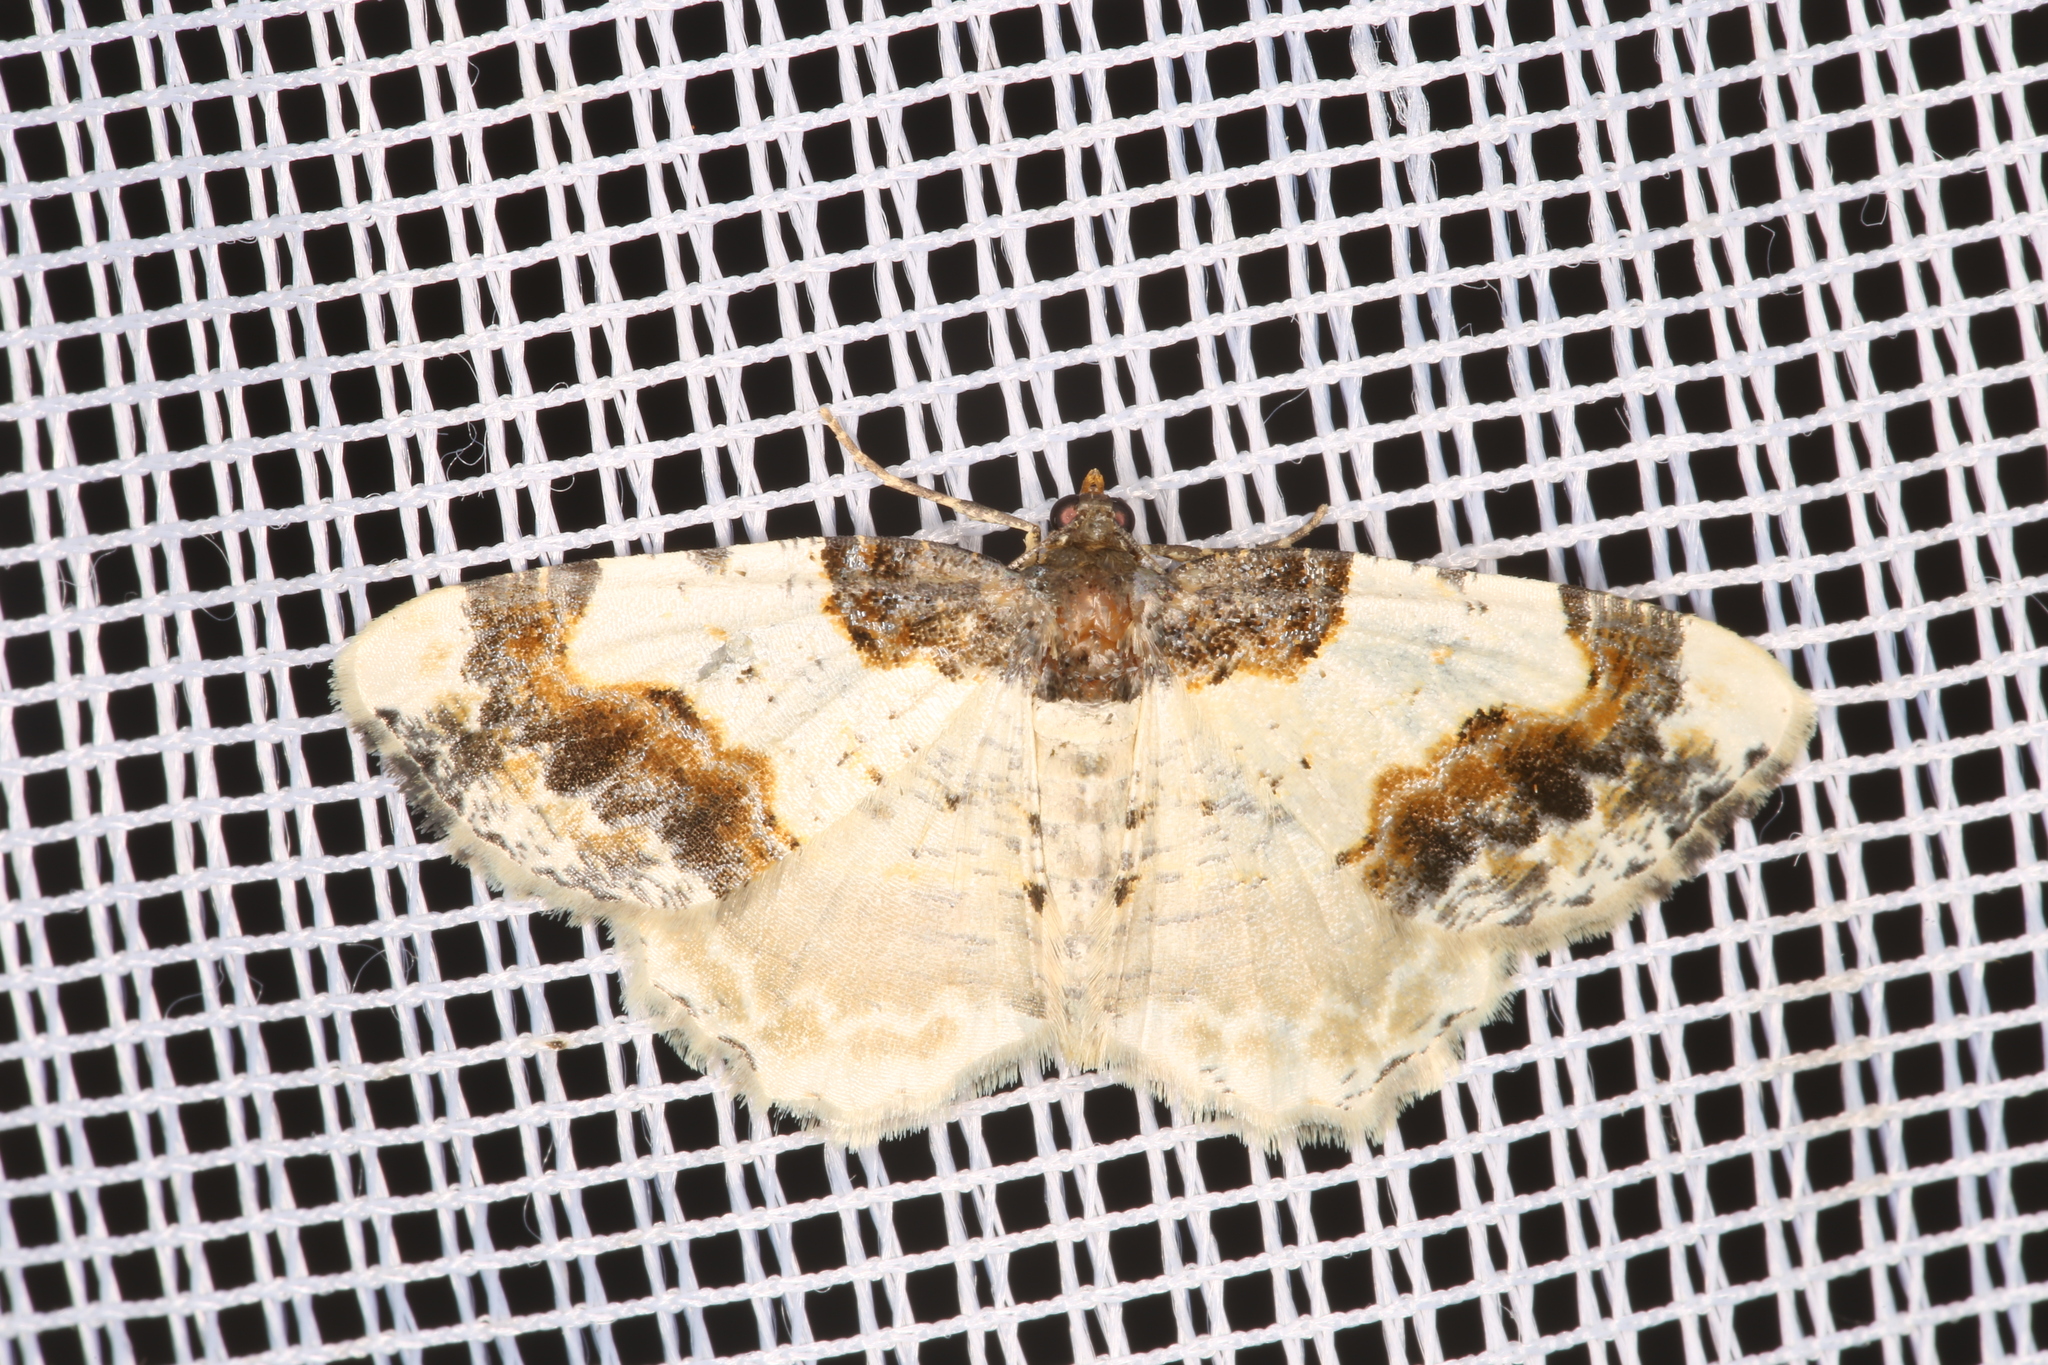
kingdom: Animalia
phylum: Arthropoda
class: Insecta
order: Lepidoptera
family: Geometridae
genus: Ligdia
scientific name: Ligdia adustata
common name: Scorched carpet
